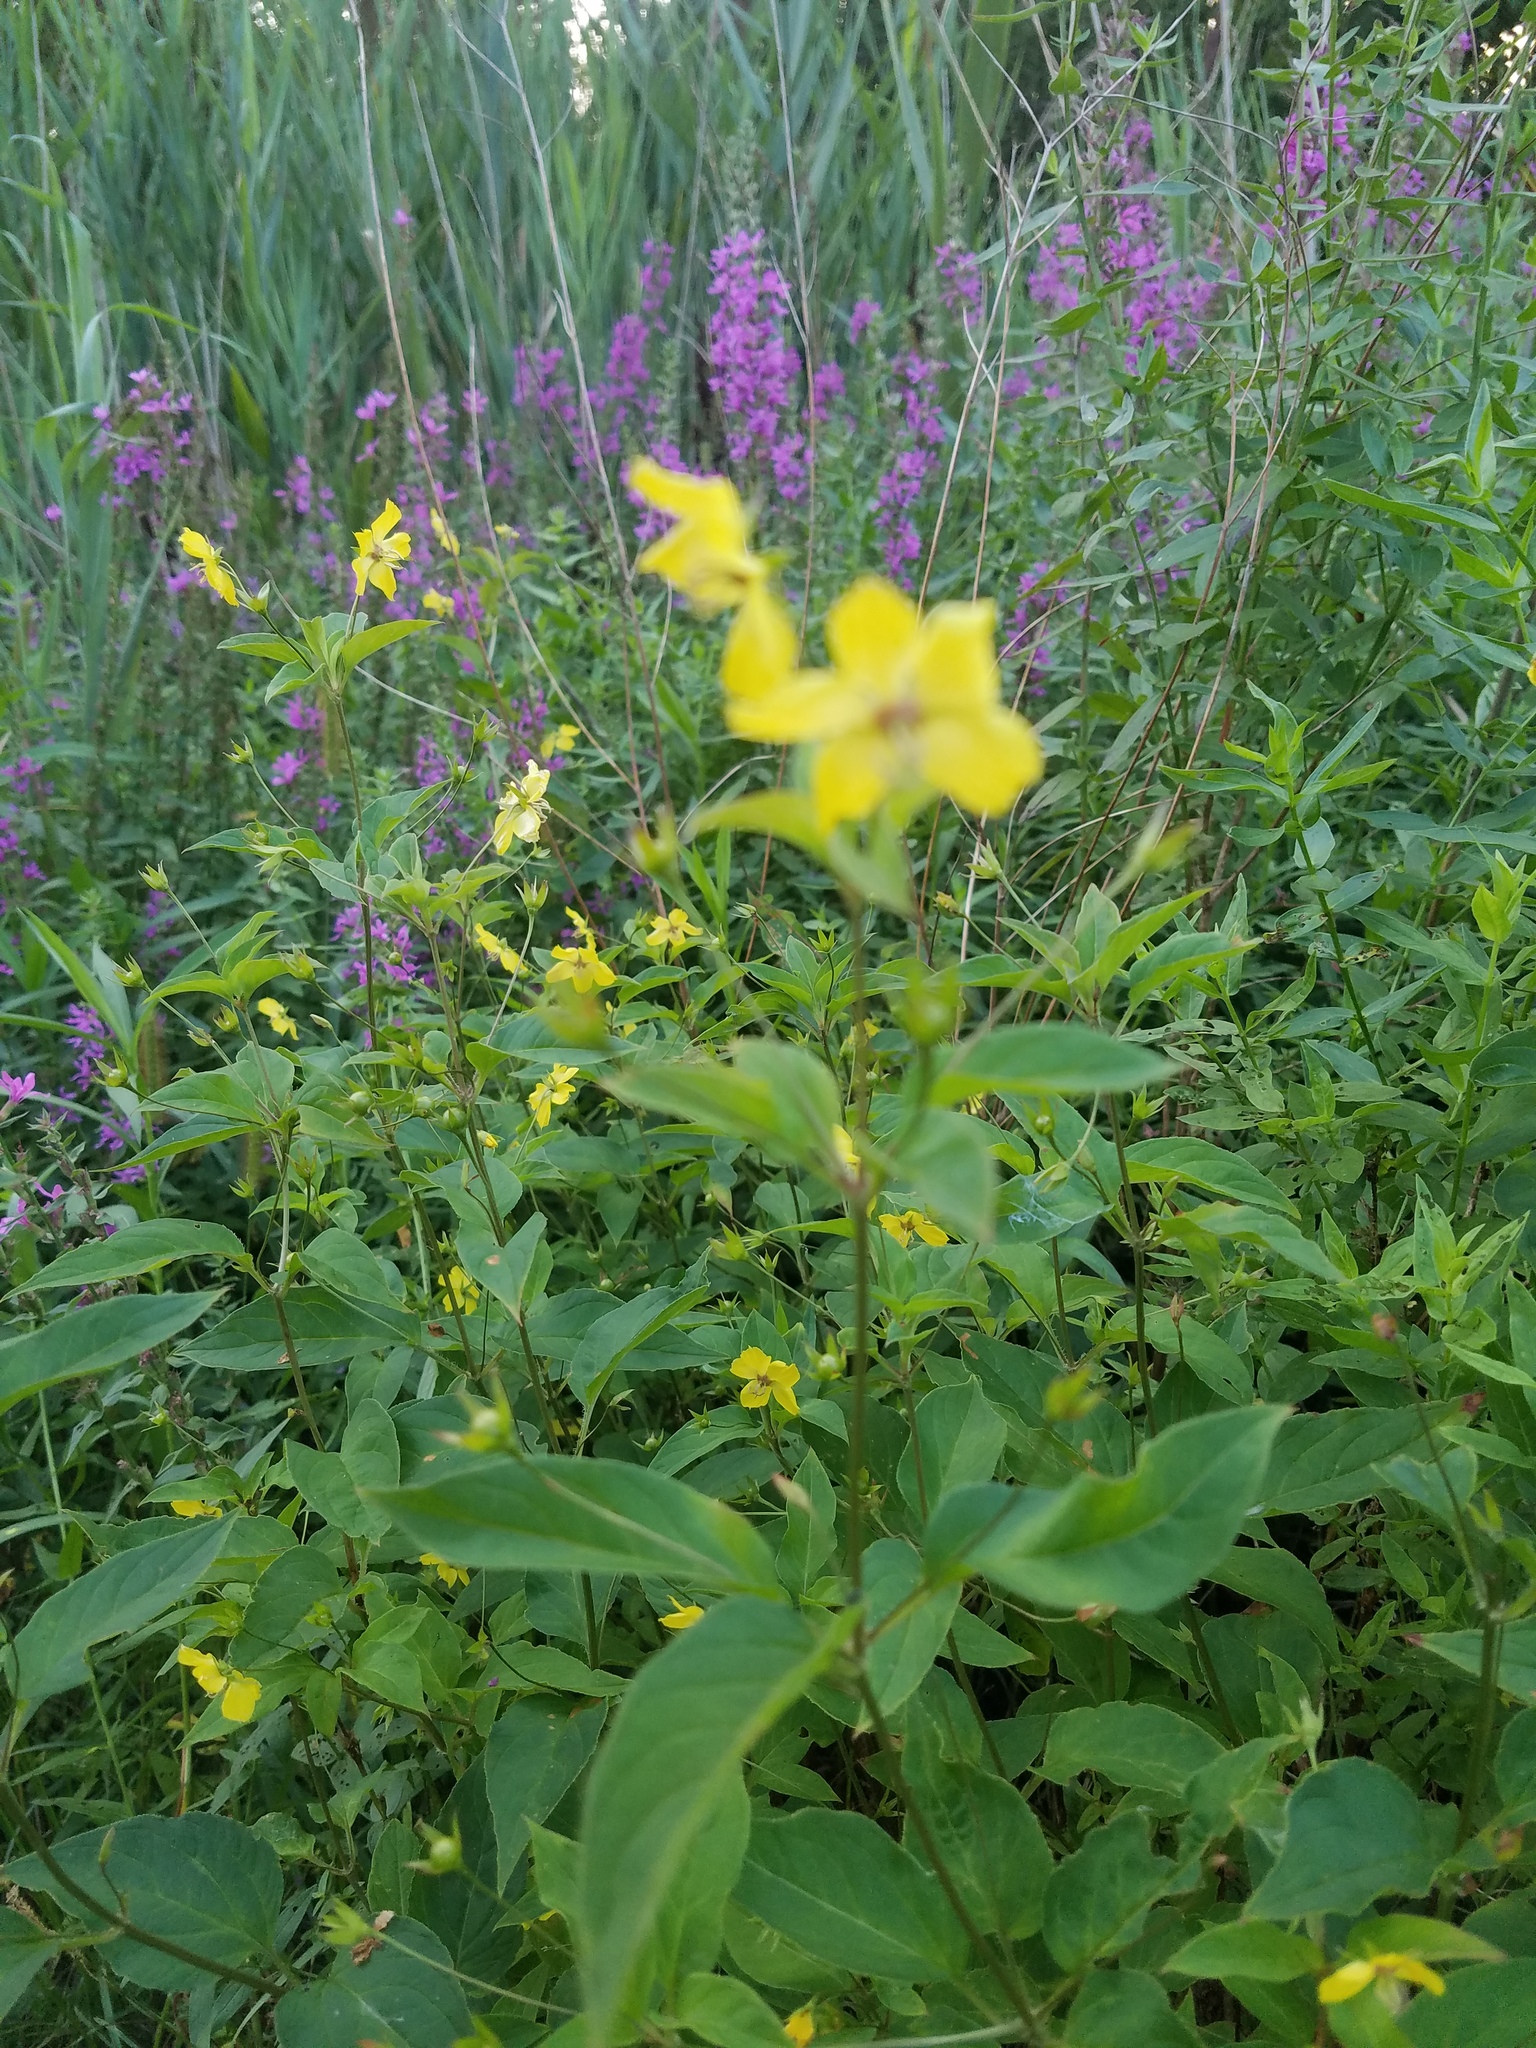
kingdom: Plantae
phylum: Tracheophyta
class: Magnoliopsida
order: Ericales
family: Primulaceae
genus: Lysimachia
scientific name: Lysimachia ciliata
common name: Fringed loosestrife
